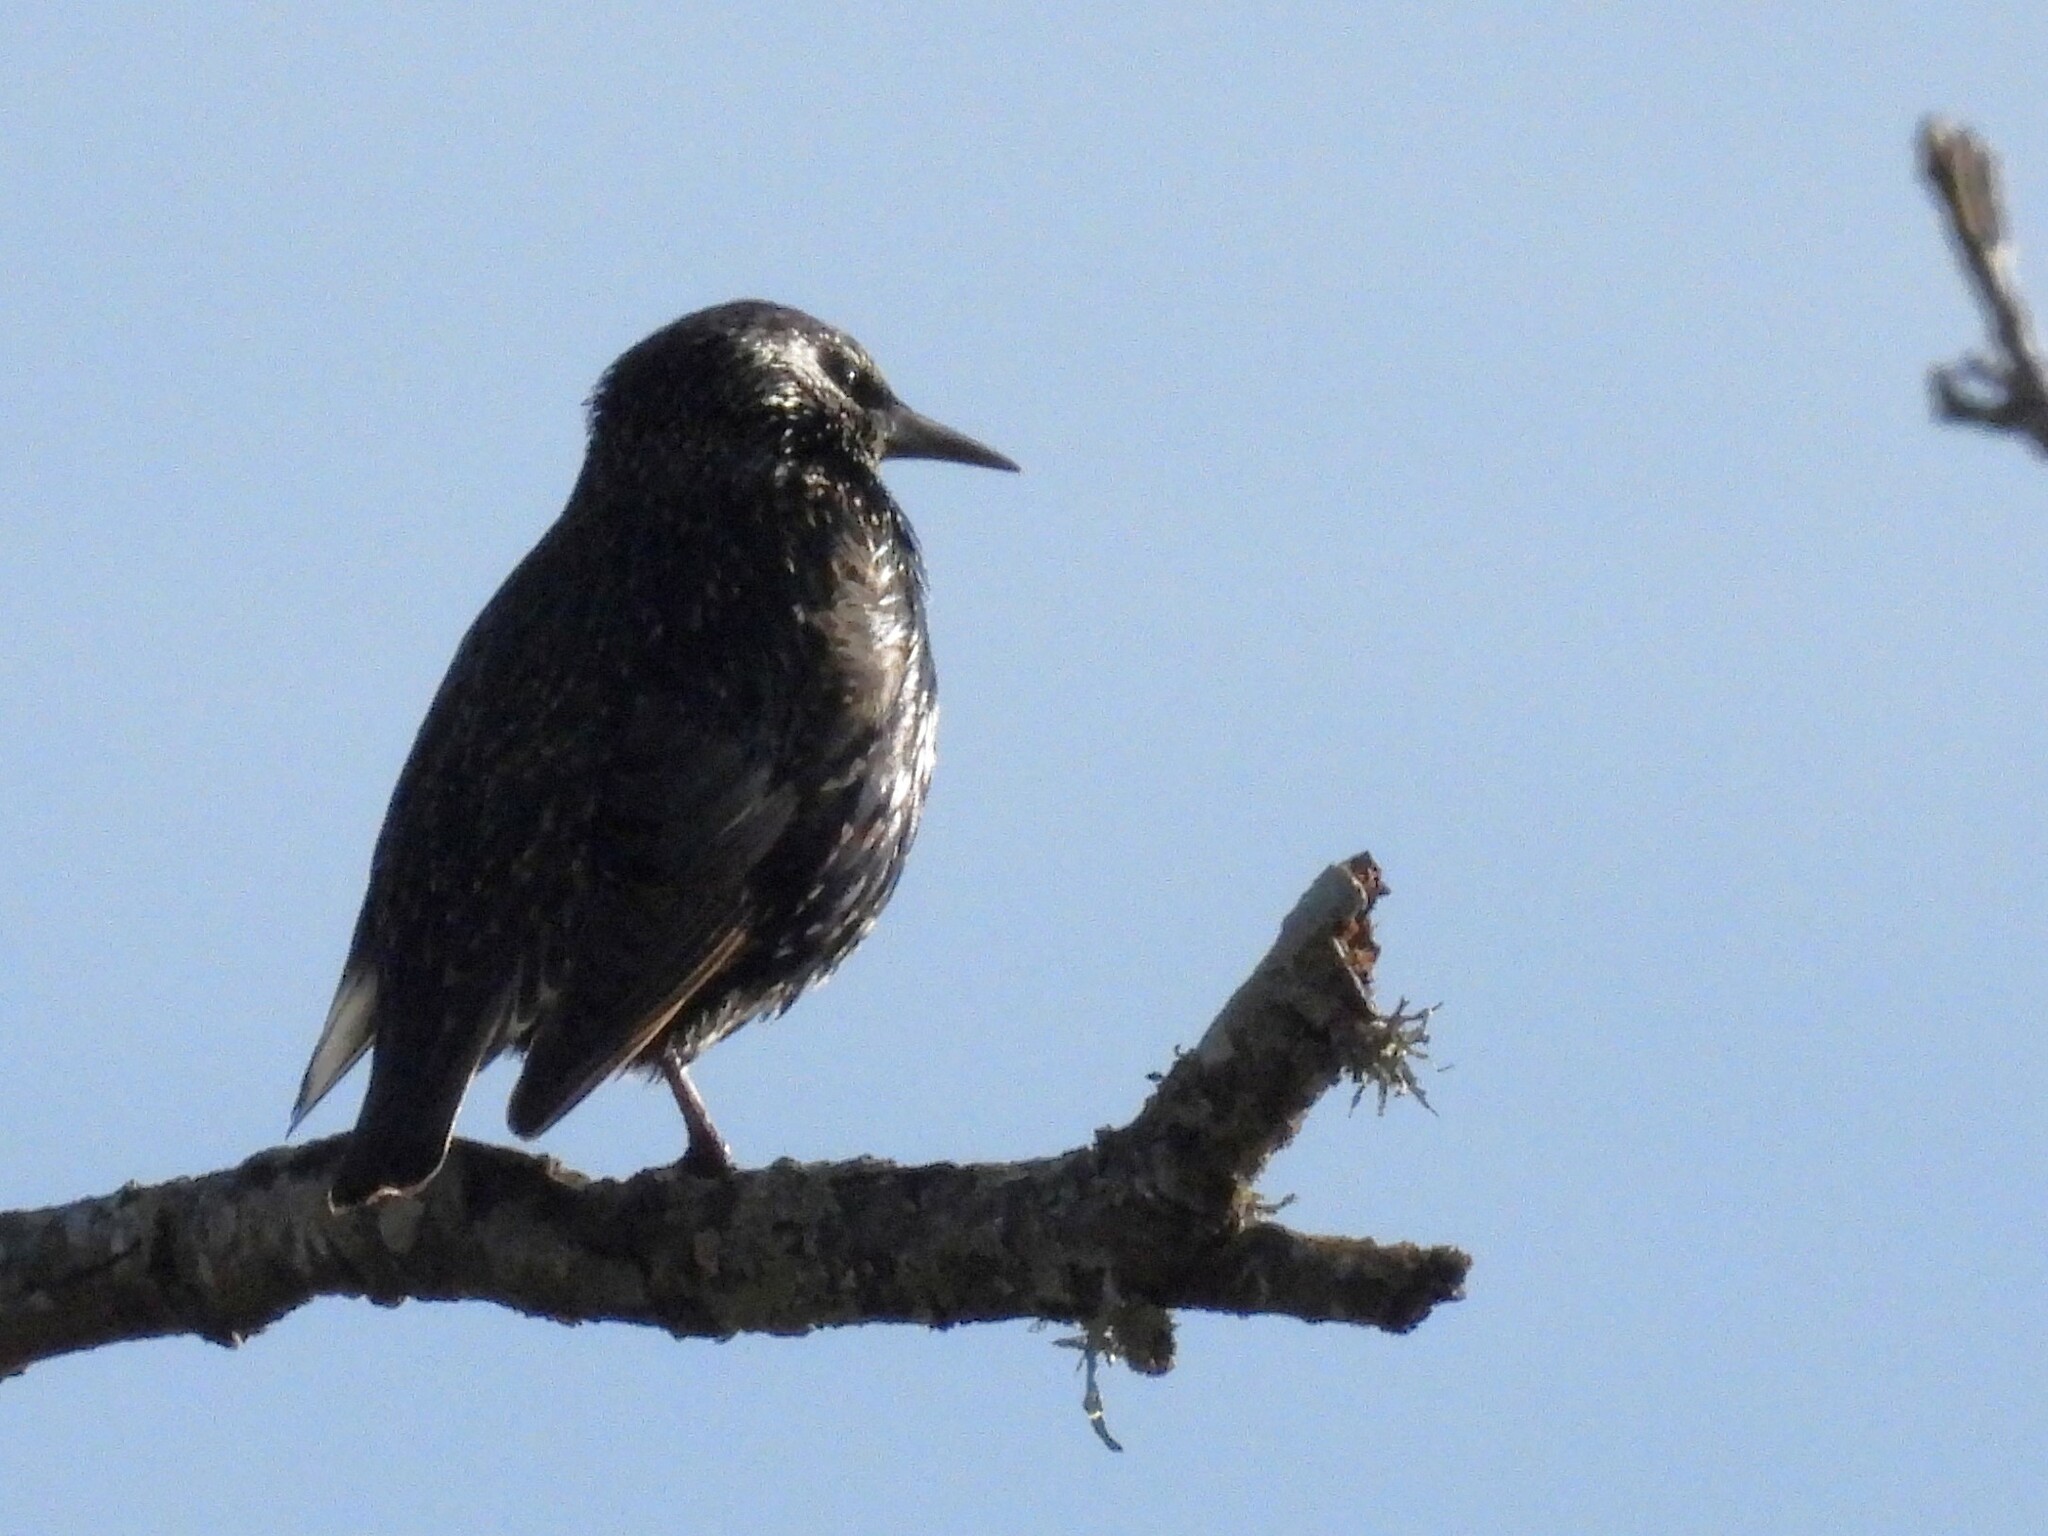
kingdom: Animalia
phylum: Chordata
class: Aves
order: Passeriformes
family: Sturnidae
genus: Sturnus
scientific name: Sturnus vulgaris
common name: Common starling
